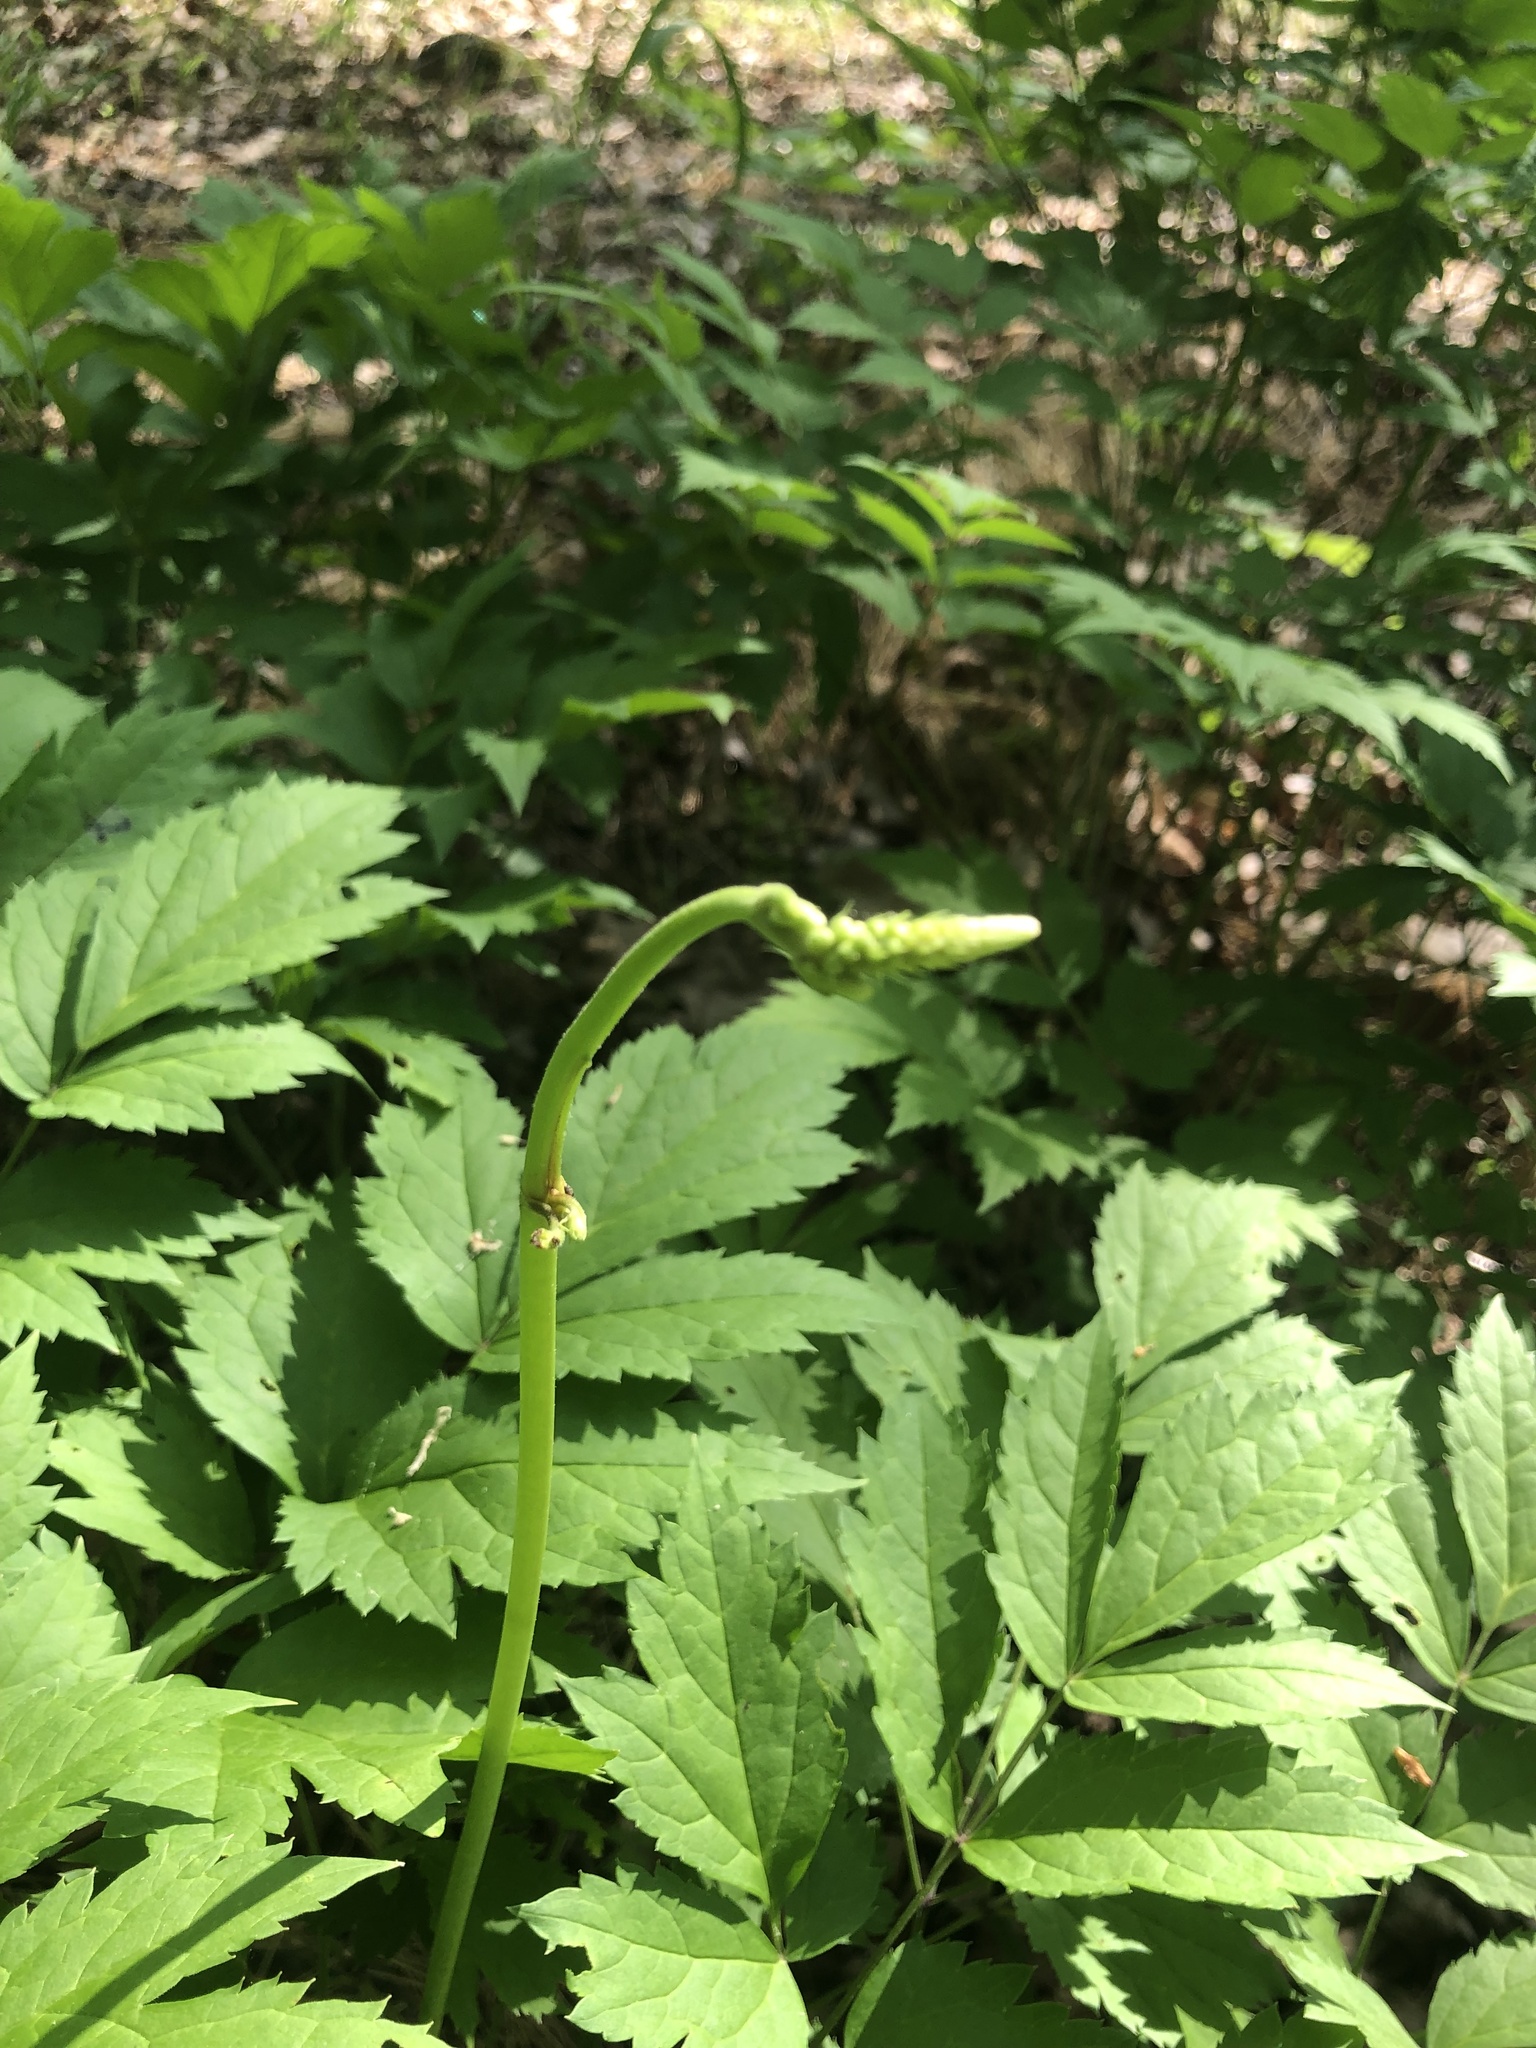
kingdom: Plantae
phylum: Tracheophyta
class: Magnoliopsida
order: Ranunculales
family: Ranunculaceae
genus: Actaea
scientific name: Actaea pachypoda
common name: Doll's-eyes
